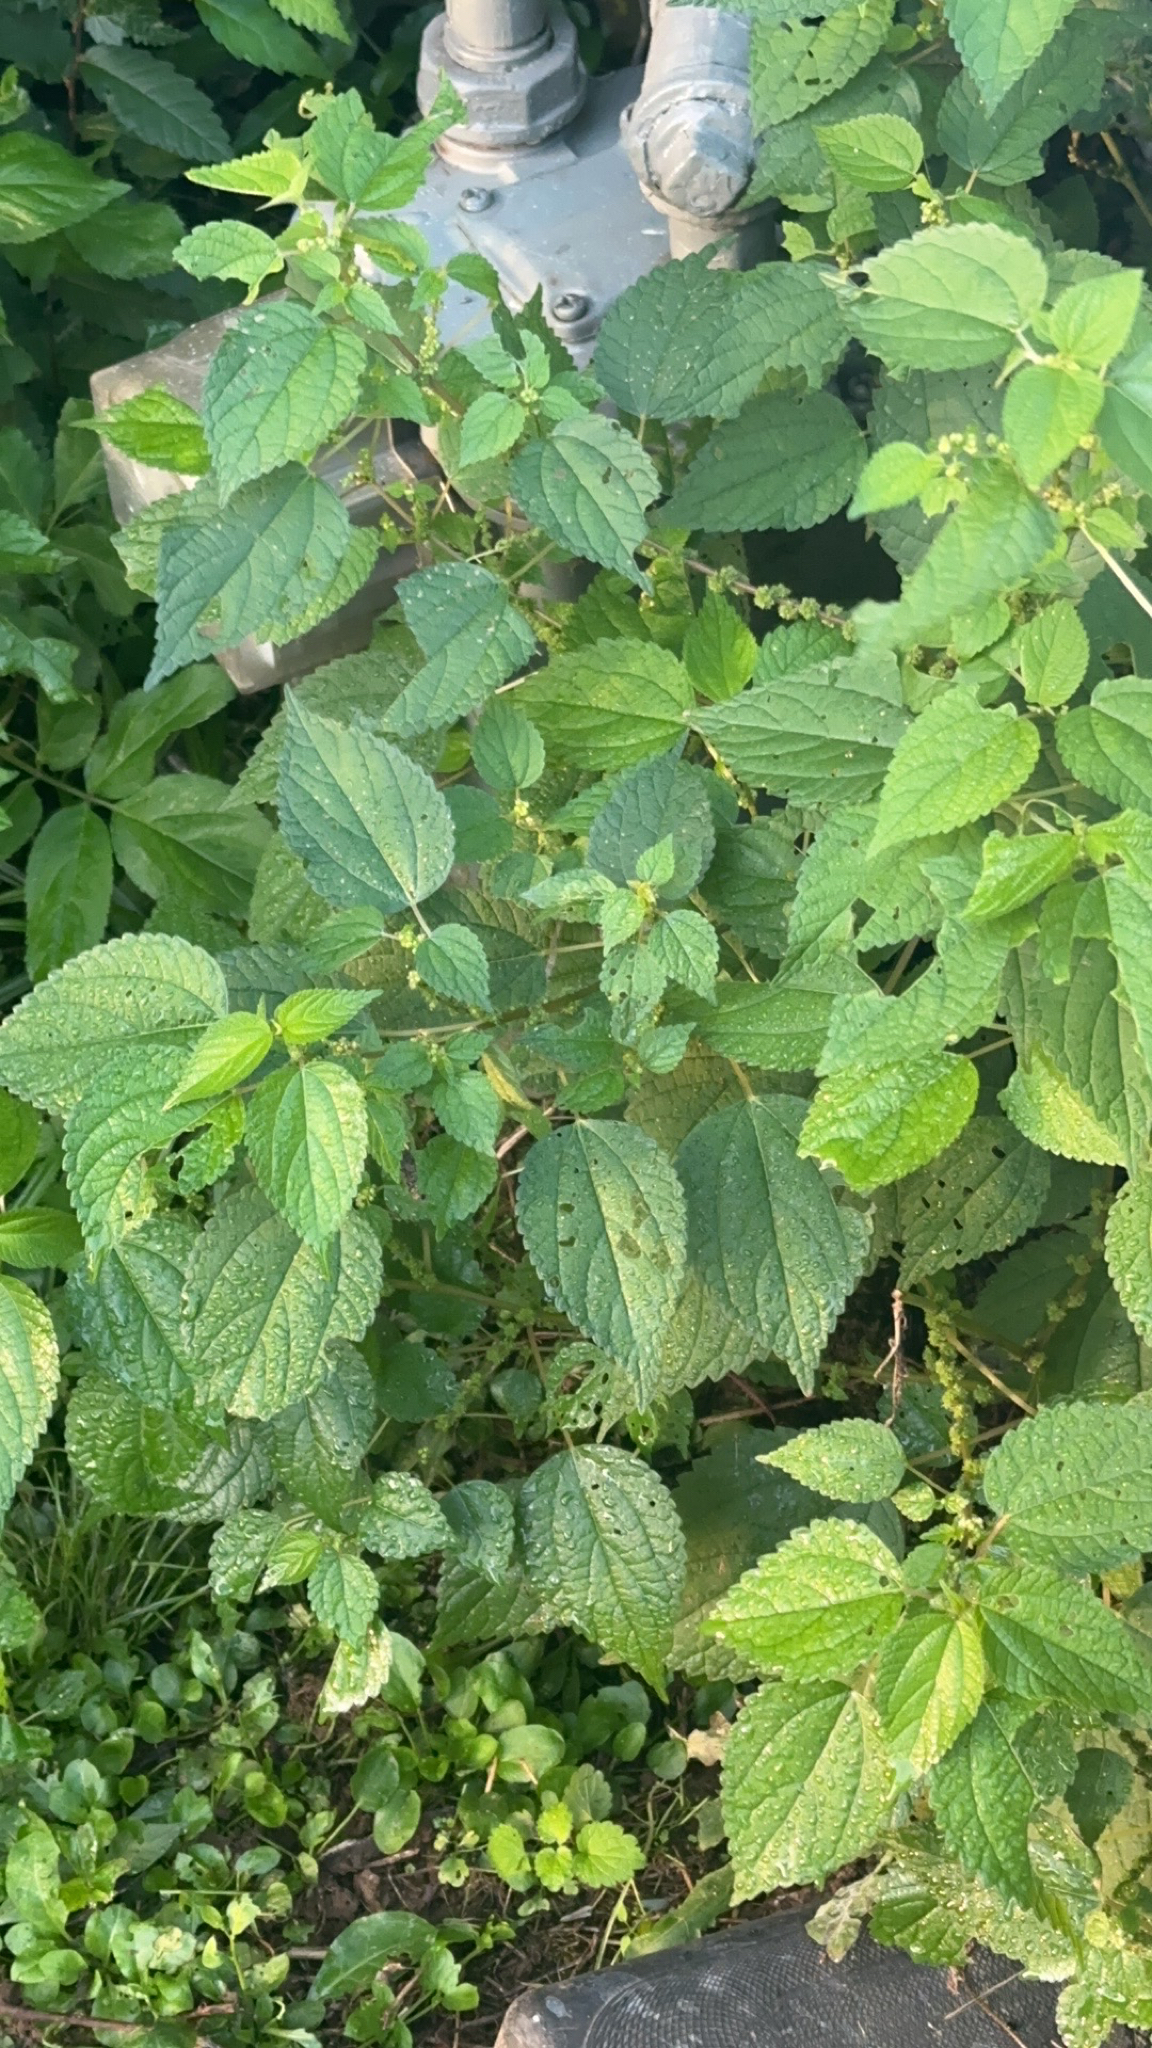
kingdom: Plantae
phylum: Tracheophyta
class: Magnoliopsida
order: Rosales
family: Urticaceae
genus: Boehmeria
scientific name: Boehmeria cylindrica
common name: Bog-hemp
